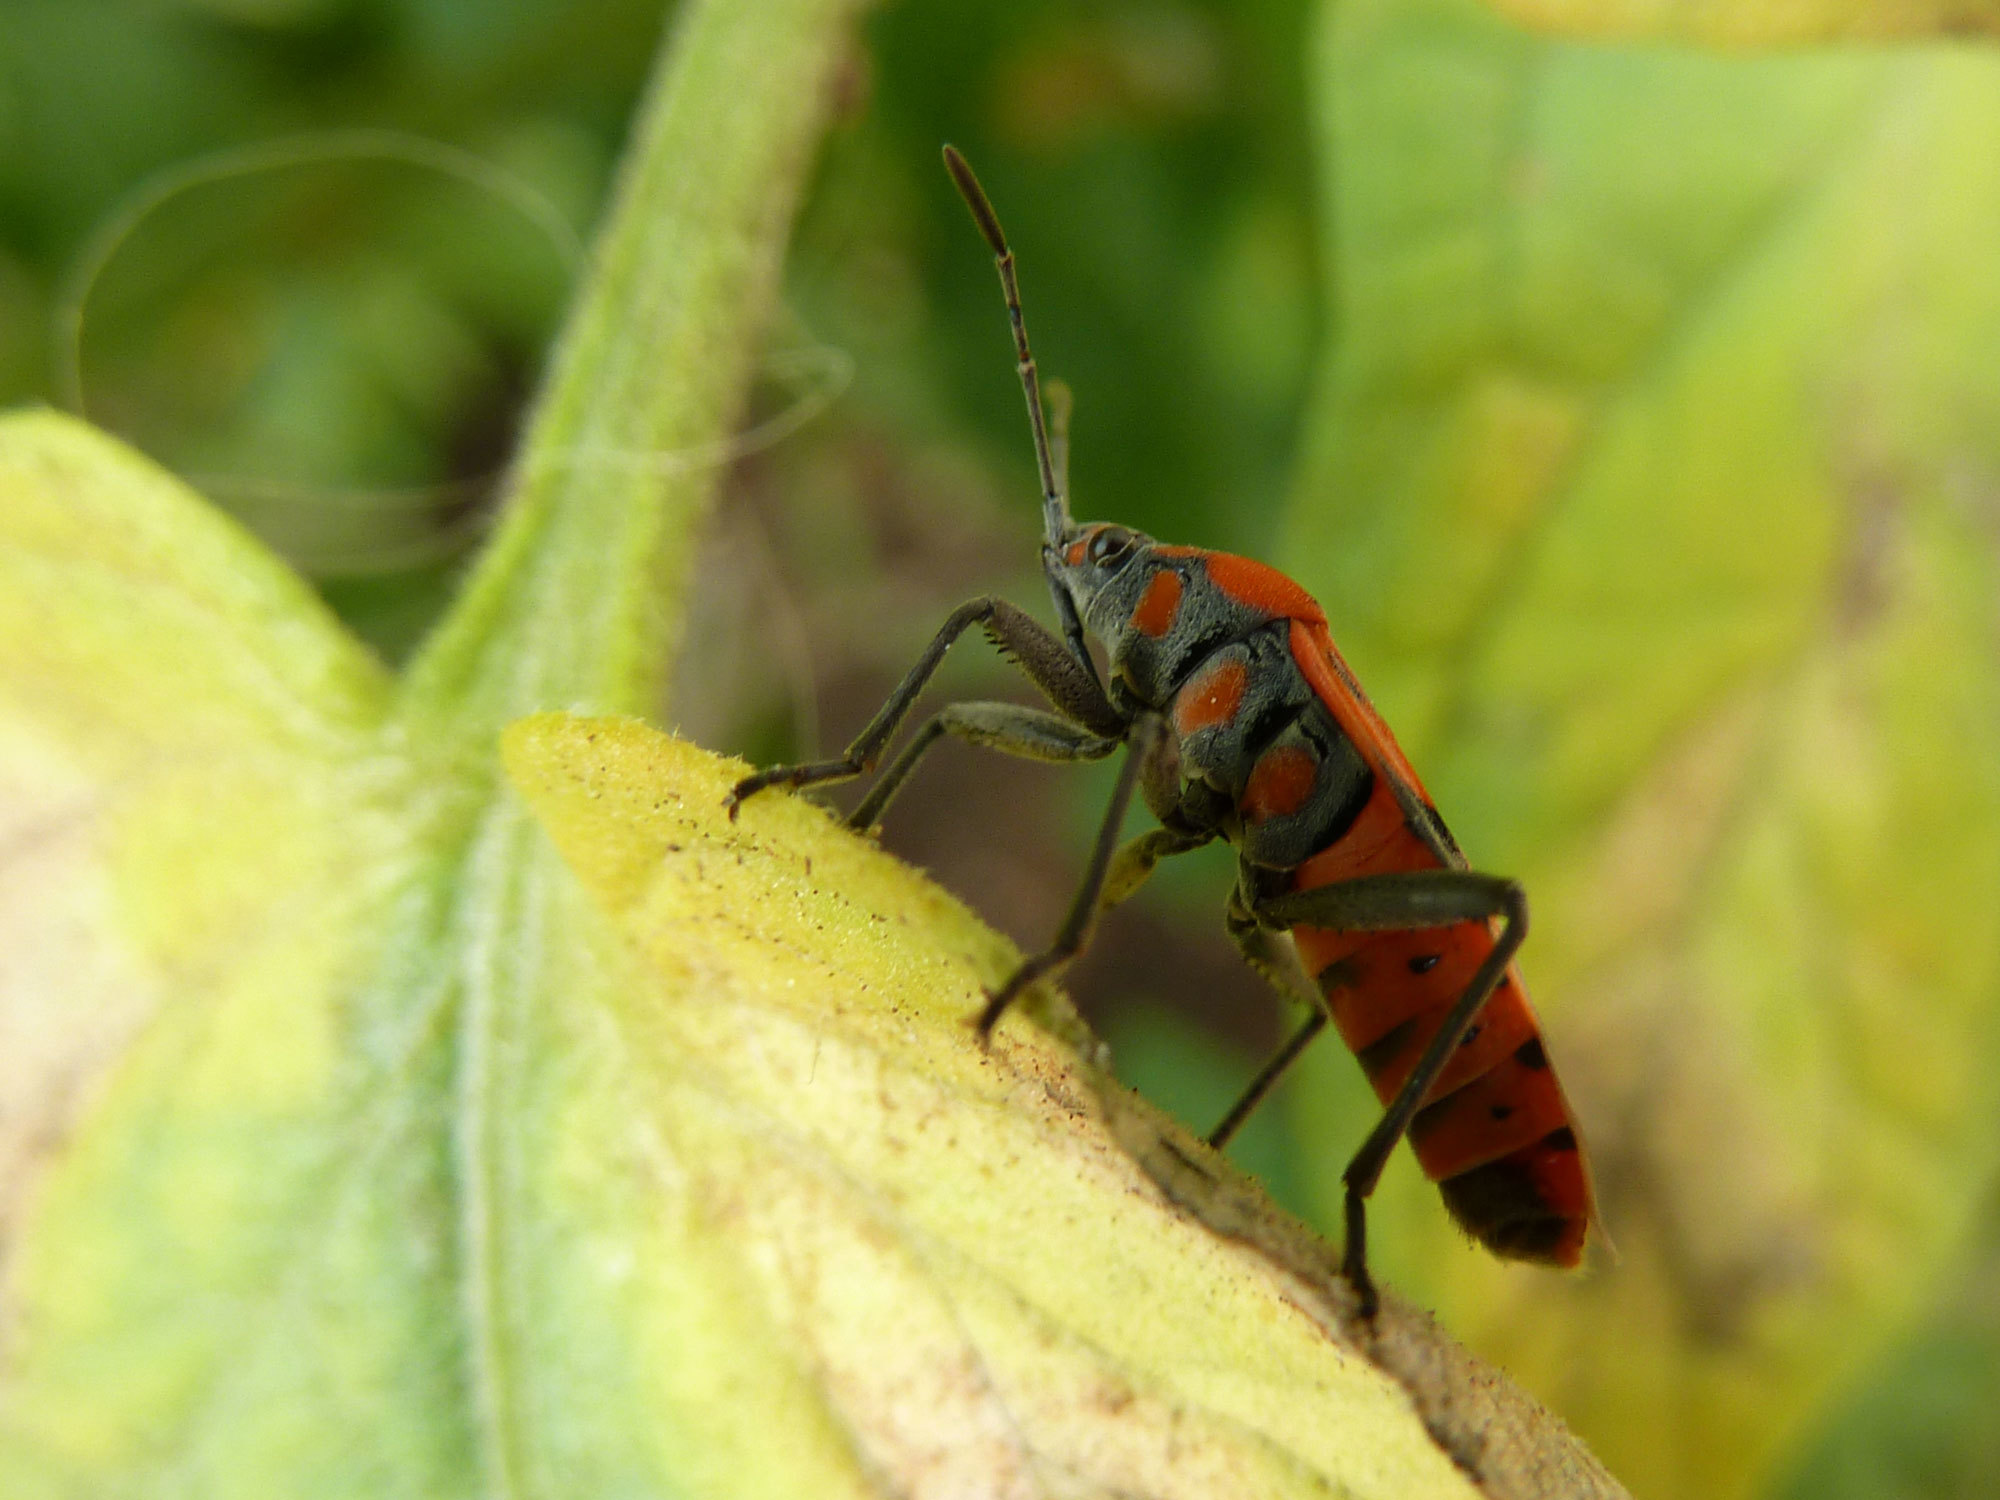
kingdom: Animalia
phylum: Arthropoda
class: Insecta
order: Hemiptera
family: Lygaeidae
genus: Spilostethus
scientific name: Spilostethus furcula
